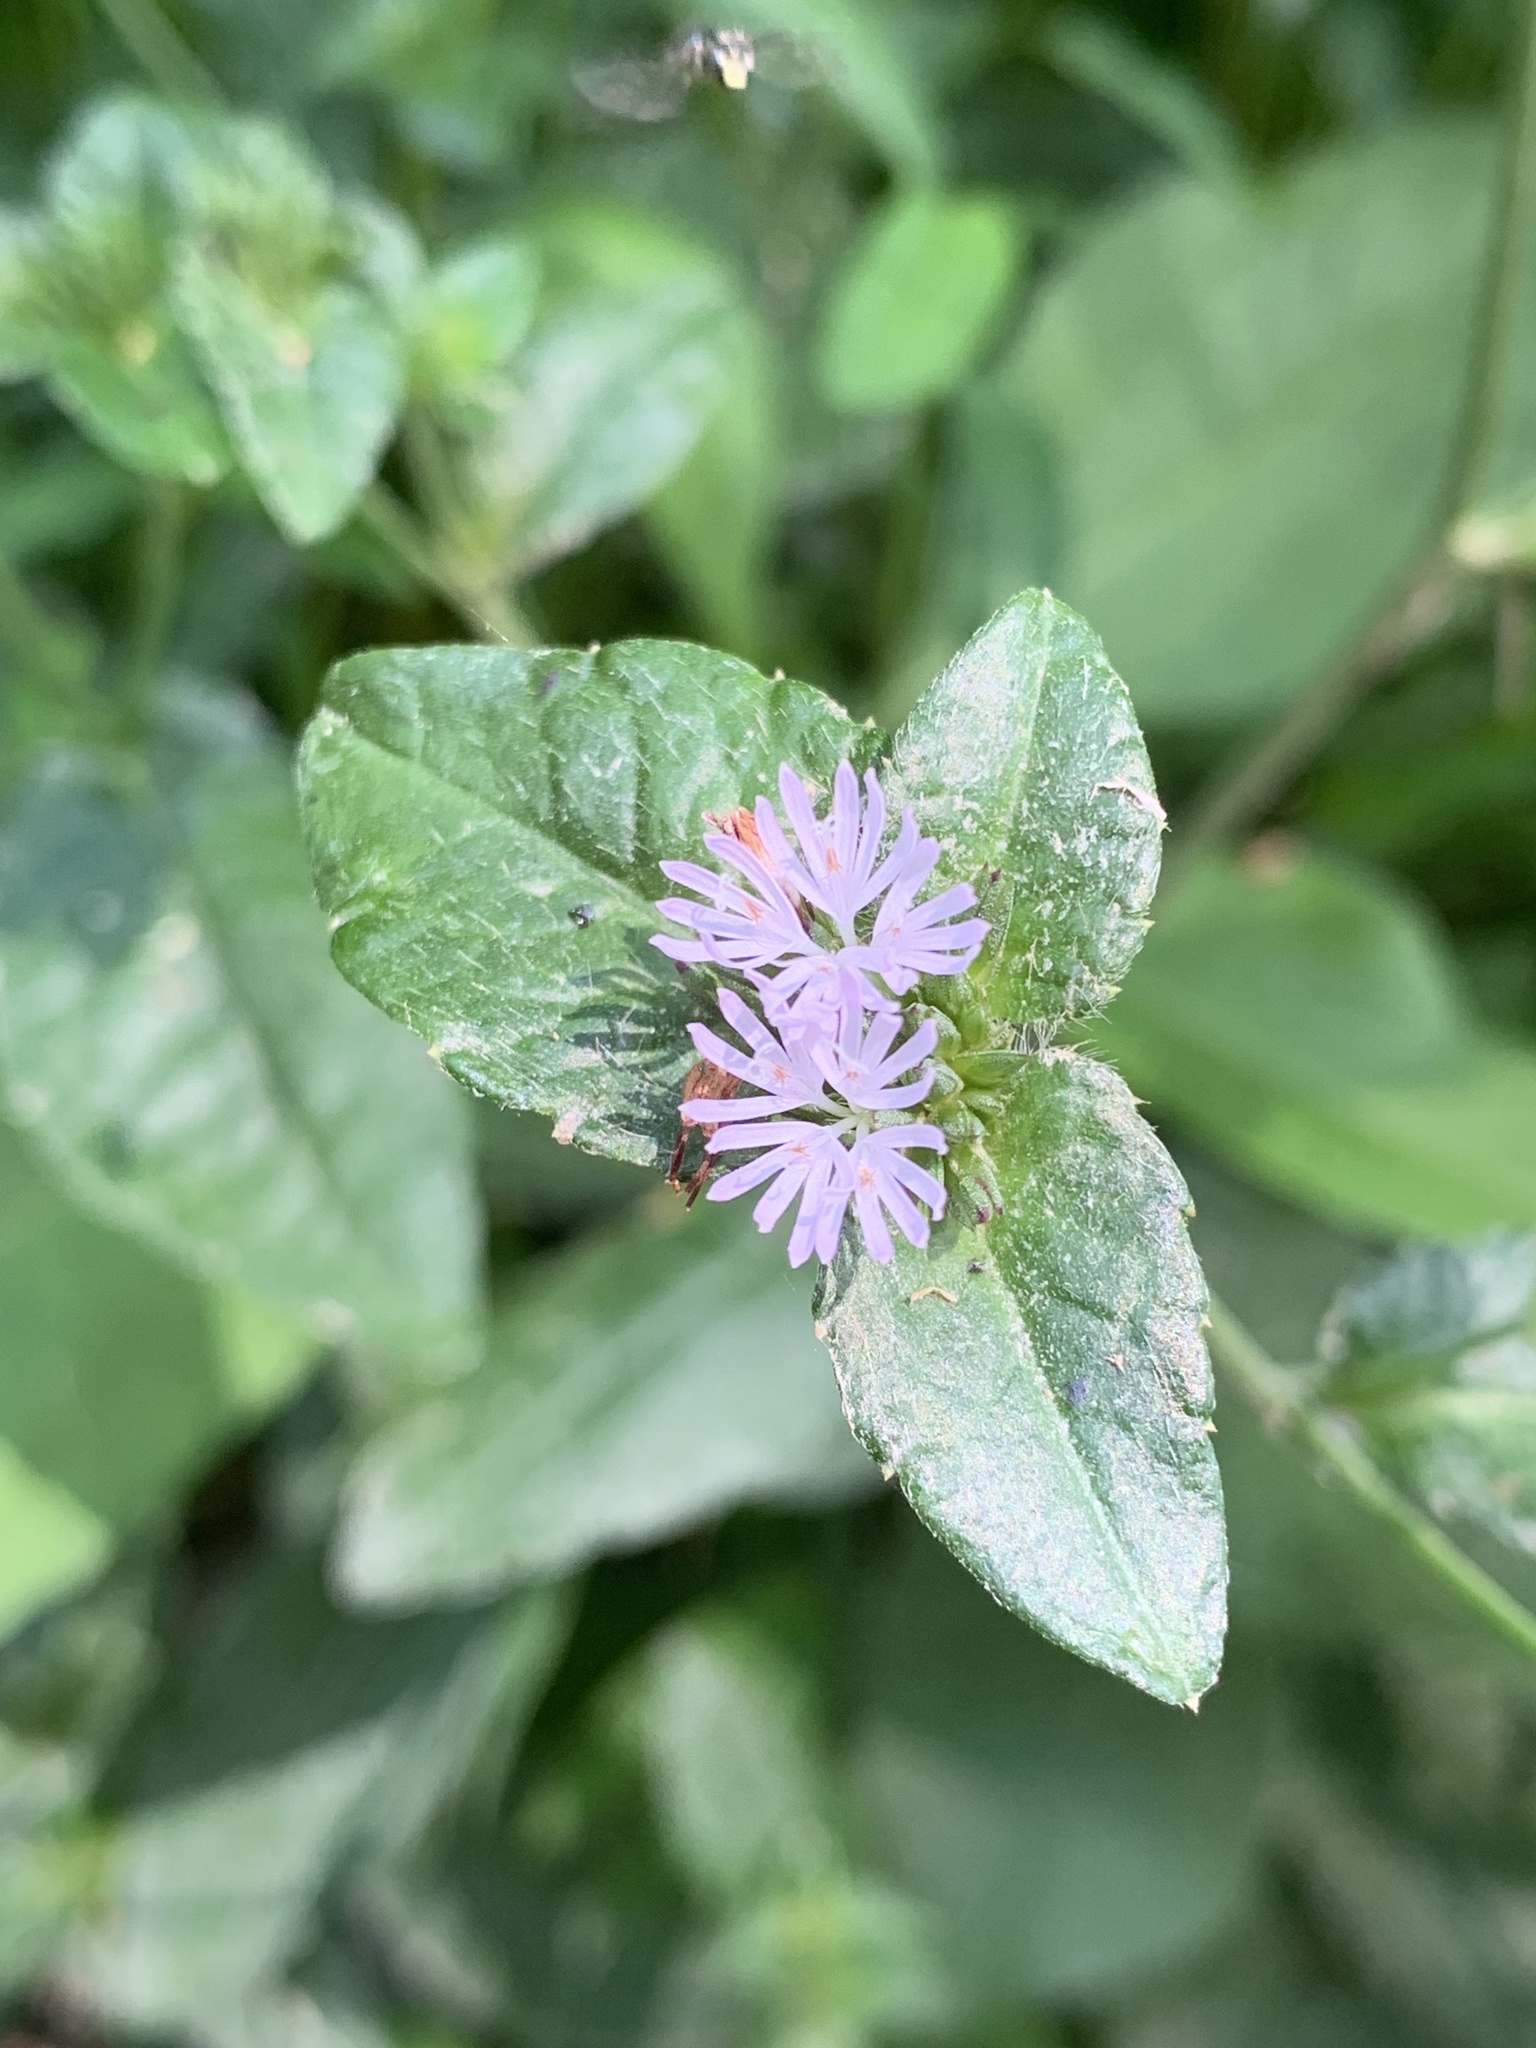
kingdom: Plantae
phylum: Tracheophyta
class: Magnoliopsida
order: Asterales
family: Asteraceae
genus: Elephantopus
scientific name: Elephantopus carolinianus
